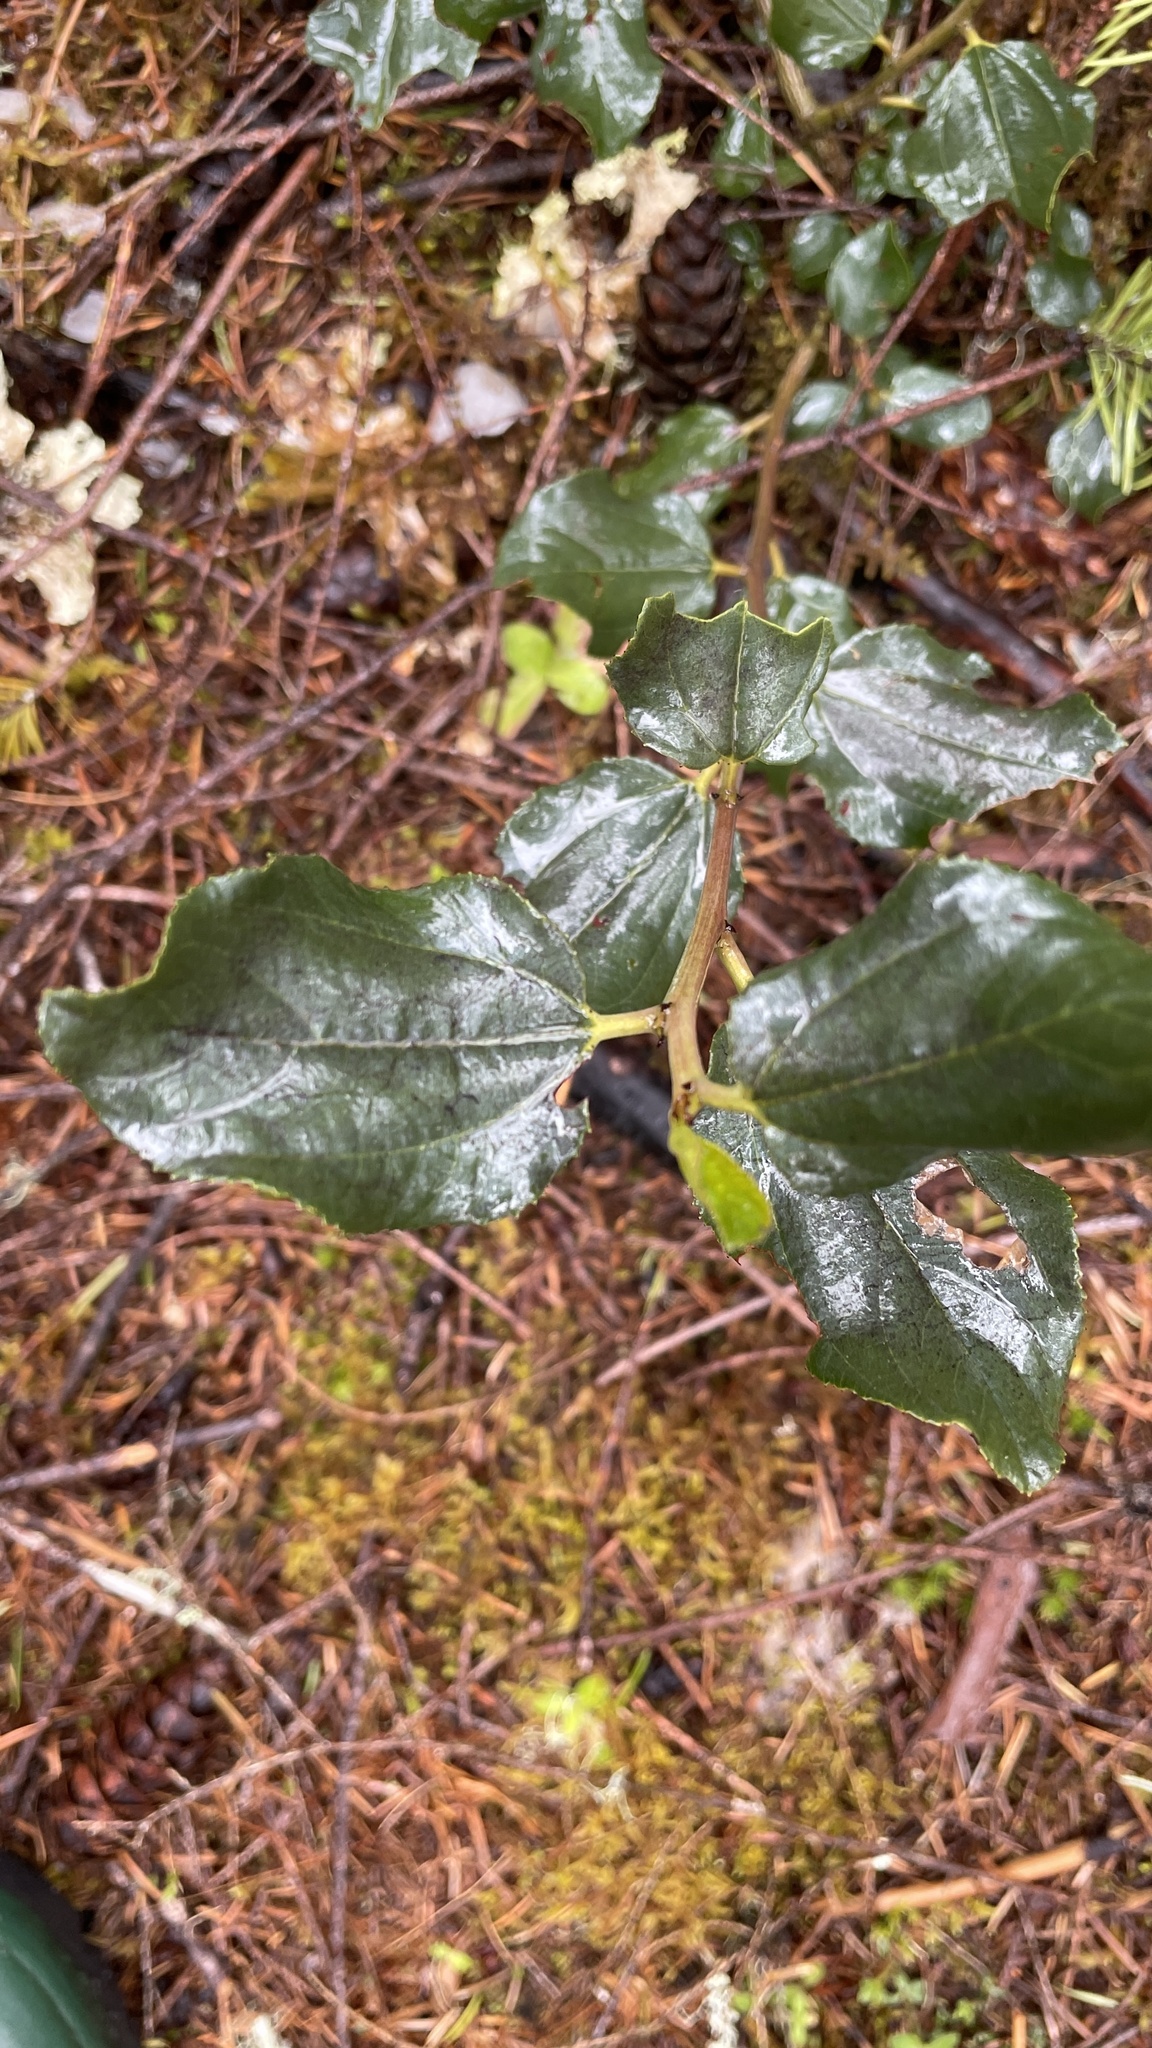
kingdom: Plantae
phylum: Tracheophyta
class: Magnoliopsida
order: Rosales
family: Rhamnaceae
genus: Ceanothus
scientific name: Ceanothus velutinus
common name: Snowbrush
